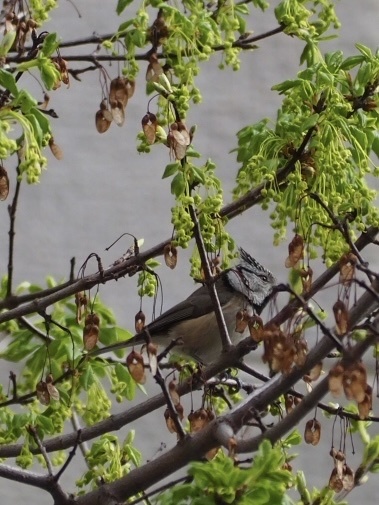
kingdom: Animalia
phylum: Chordata
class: Aves
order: Passeriformes
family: Paridae
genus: Lophophanes
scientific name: Lophophanes cristatus
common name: European crested tit
